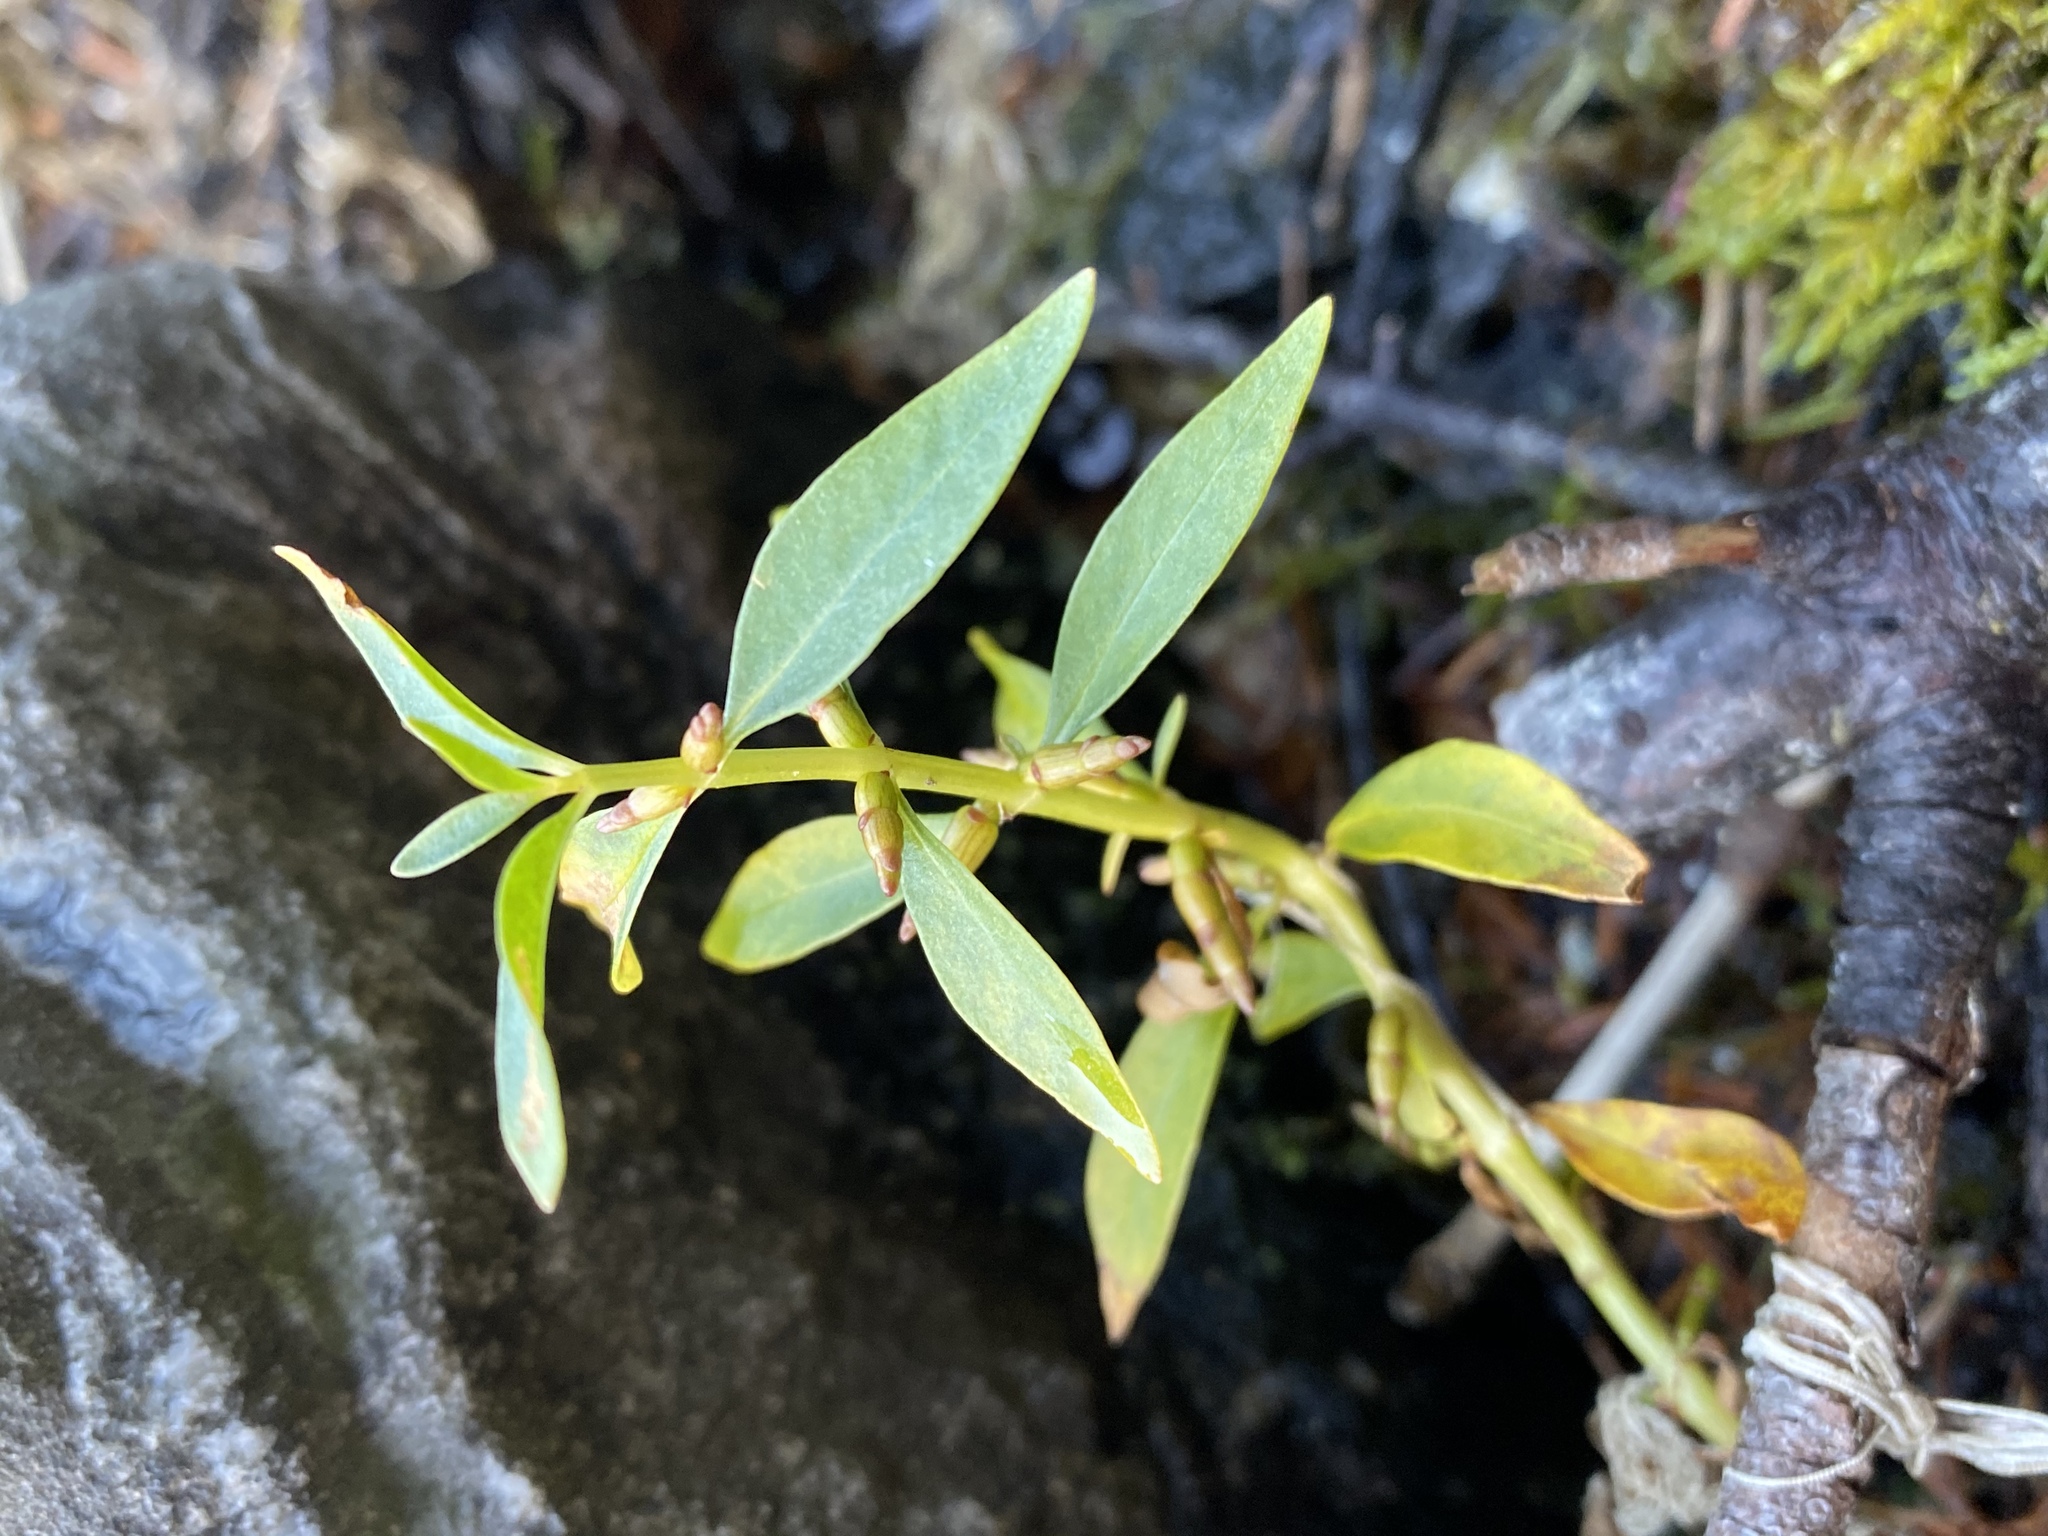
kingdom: Plantae
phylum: Tracheophyta
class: Magnoliopsida
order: Ericales
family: Primulaceae
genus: Lysimachia
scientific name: Lysimachia terrestris
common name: Lake loosestrife
